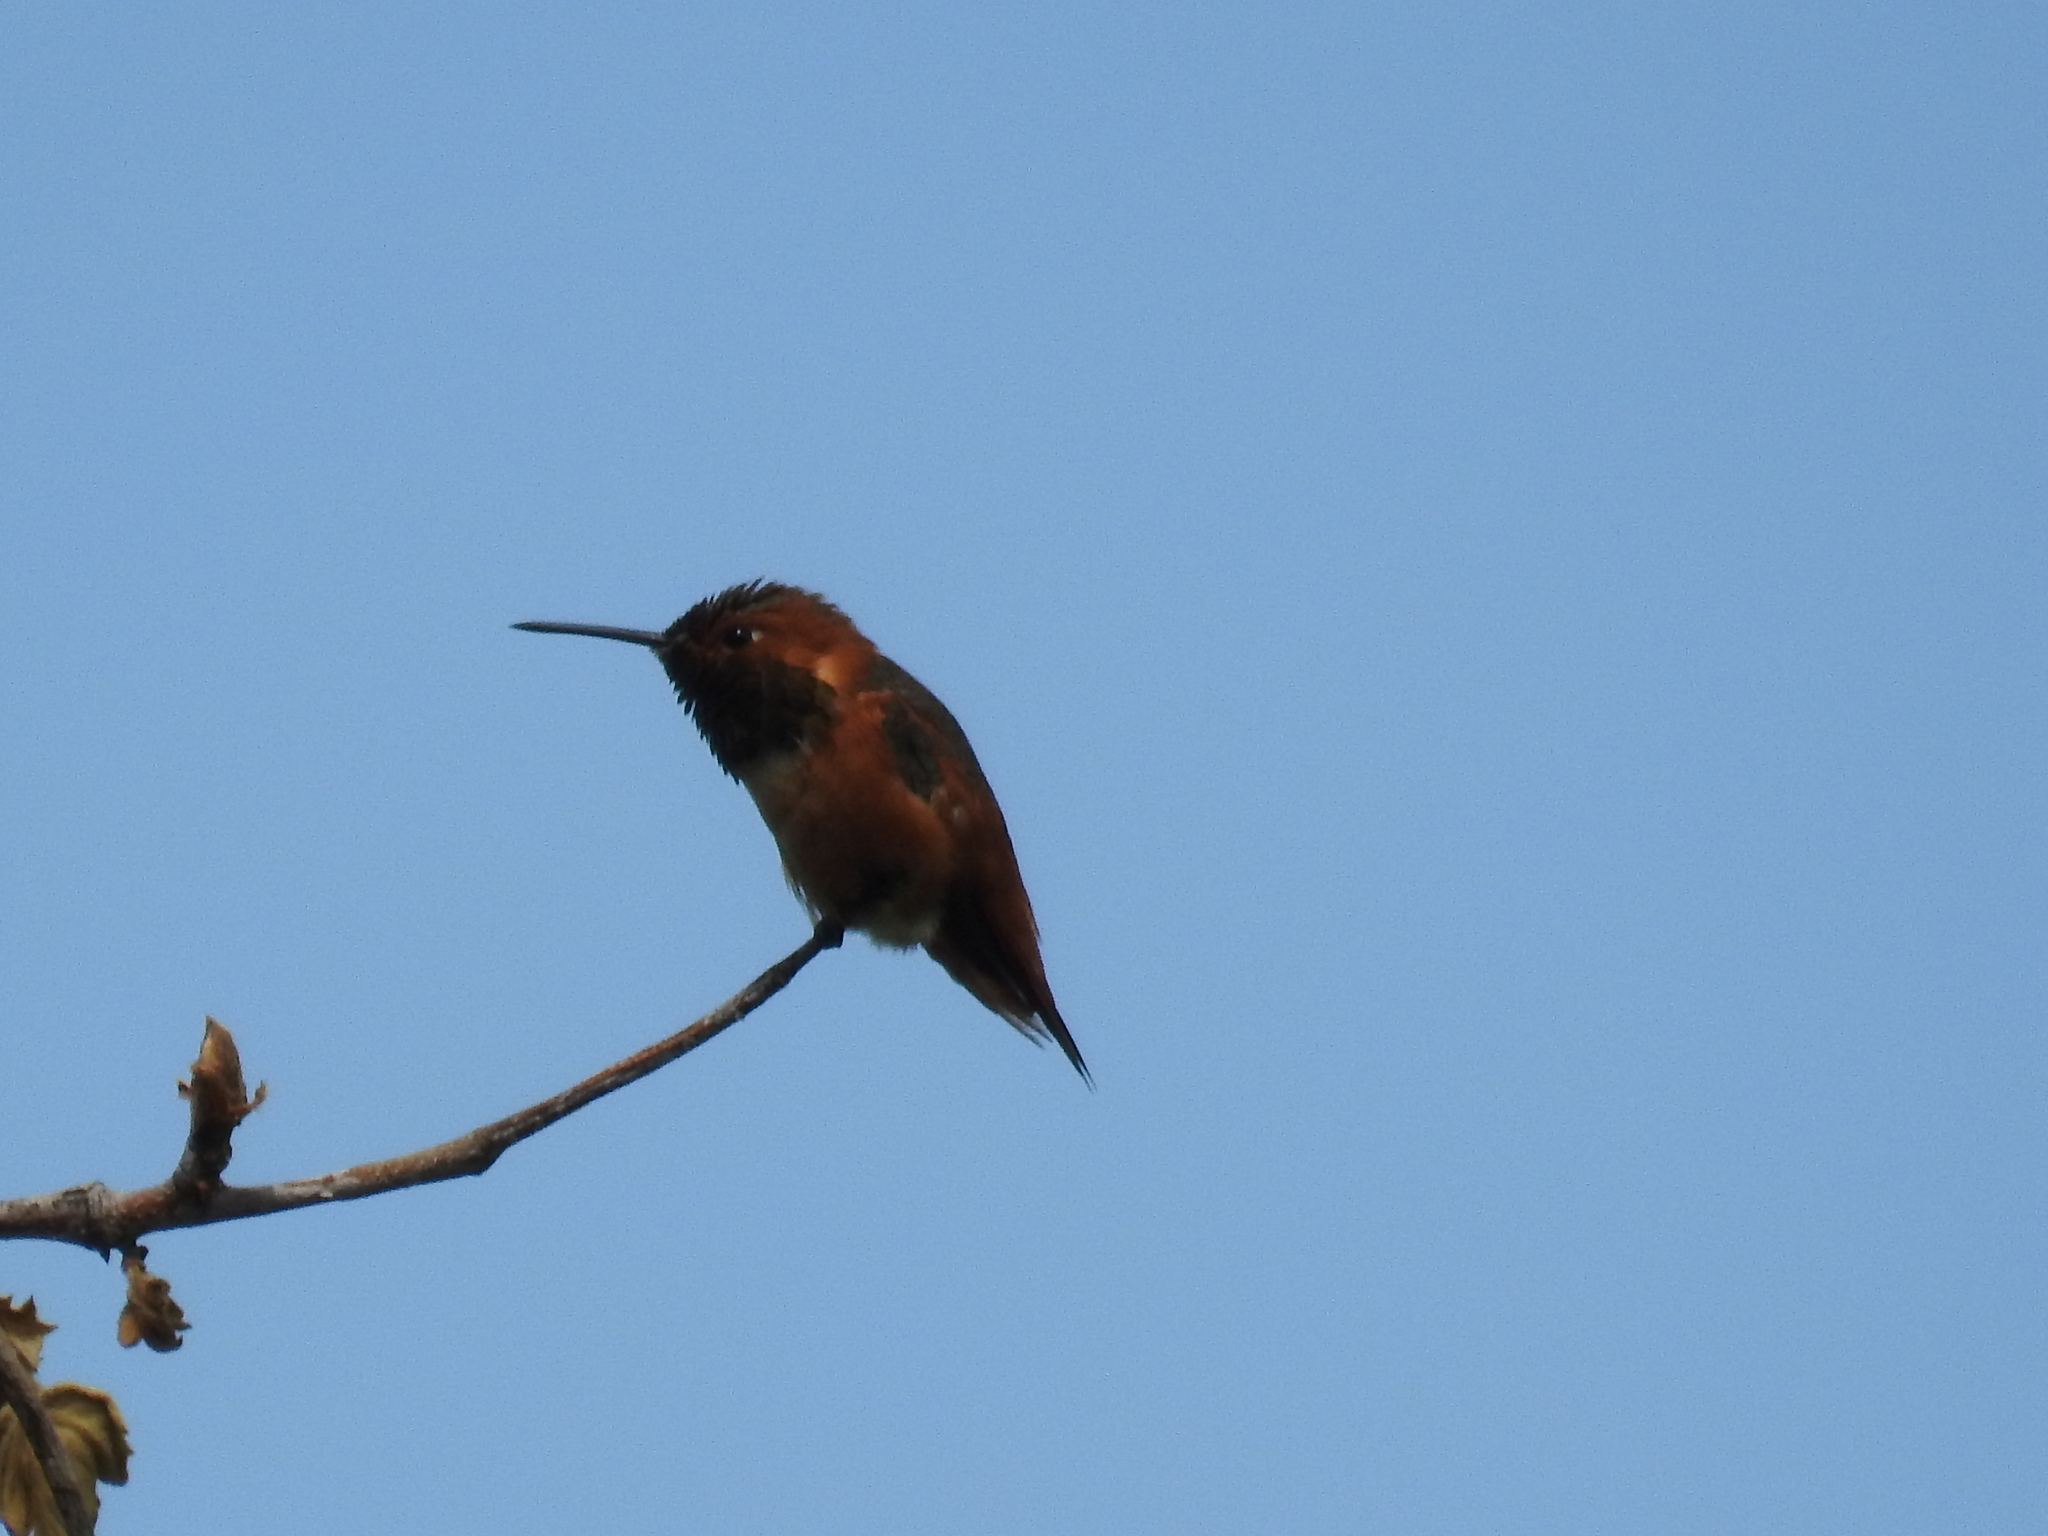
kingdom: Animalia
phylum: Chordata
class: Aves
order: Apodiformes
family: Trochilidae
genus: Selasphorus
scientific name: Selasphorus sasin
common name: Allen's hummingbird
